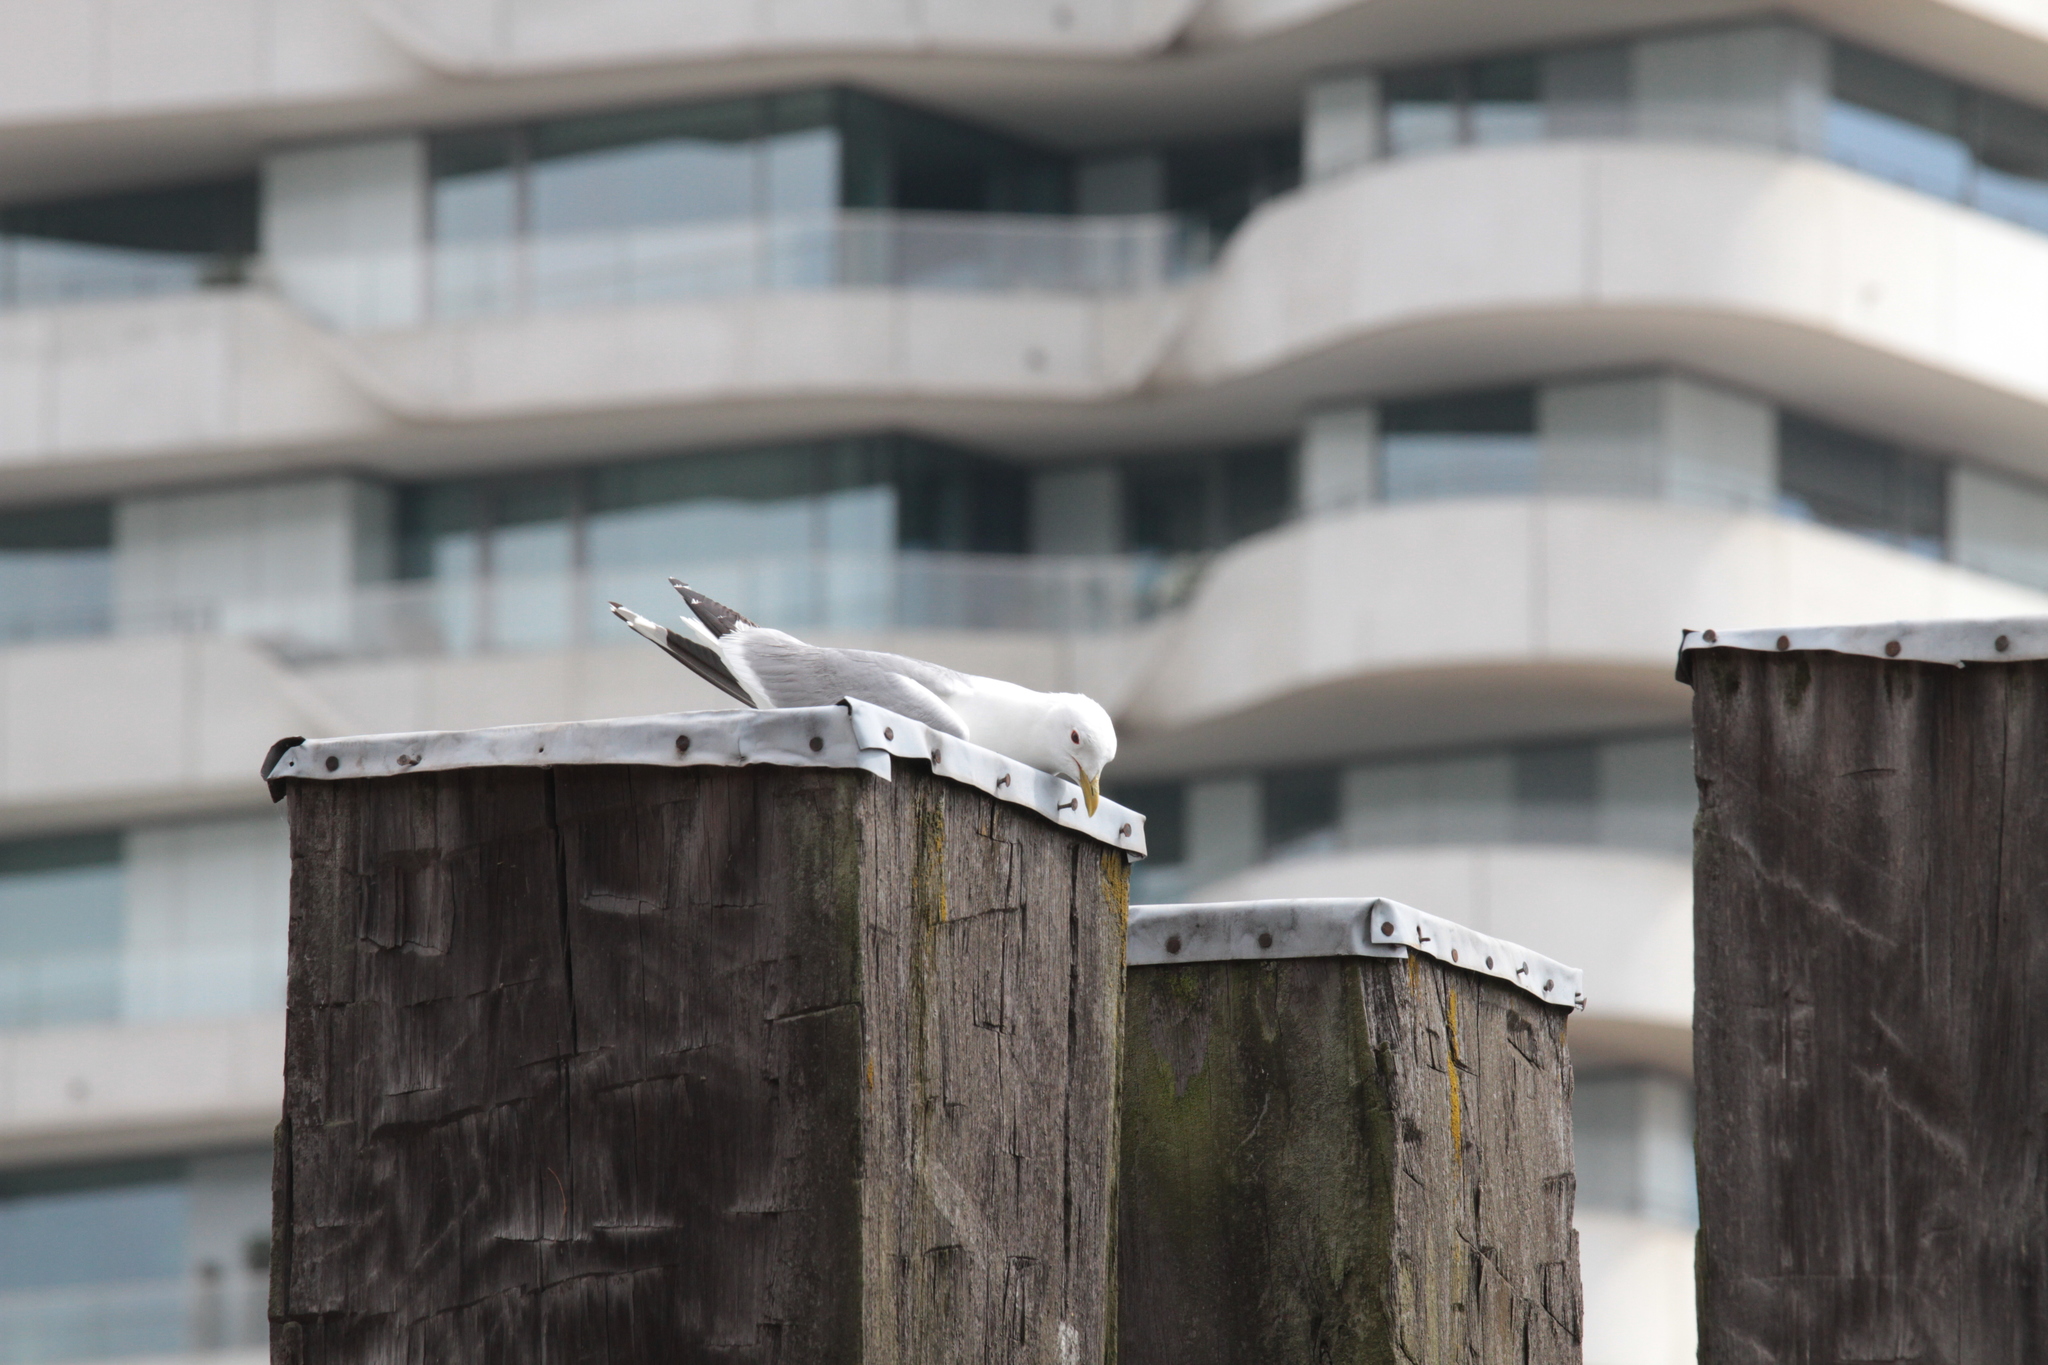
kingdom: Animalia
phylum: Chordata
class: Aves
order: Charadriiformes
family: Laridae
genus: Larus
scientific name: Larus canus
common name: Mew gull
